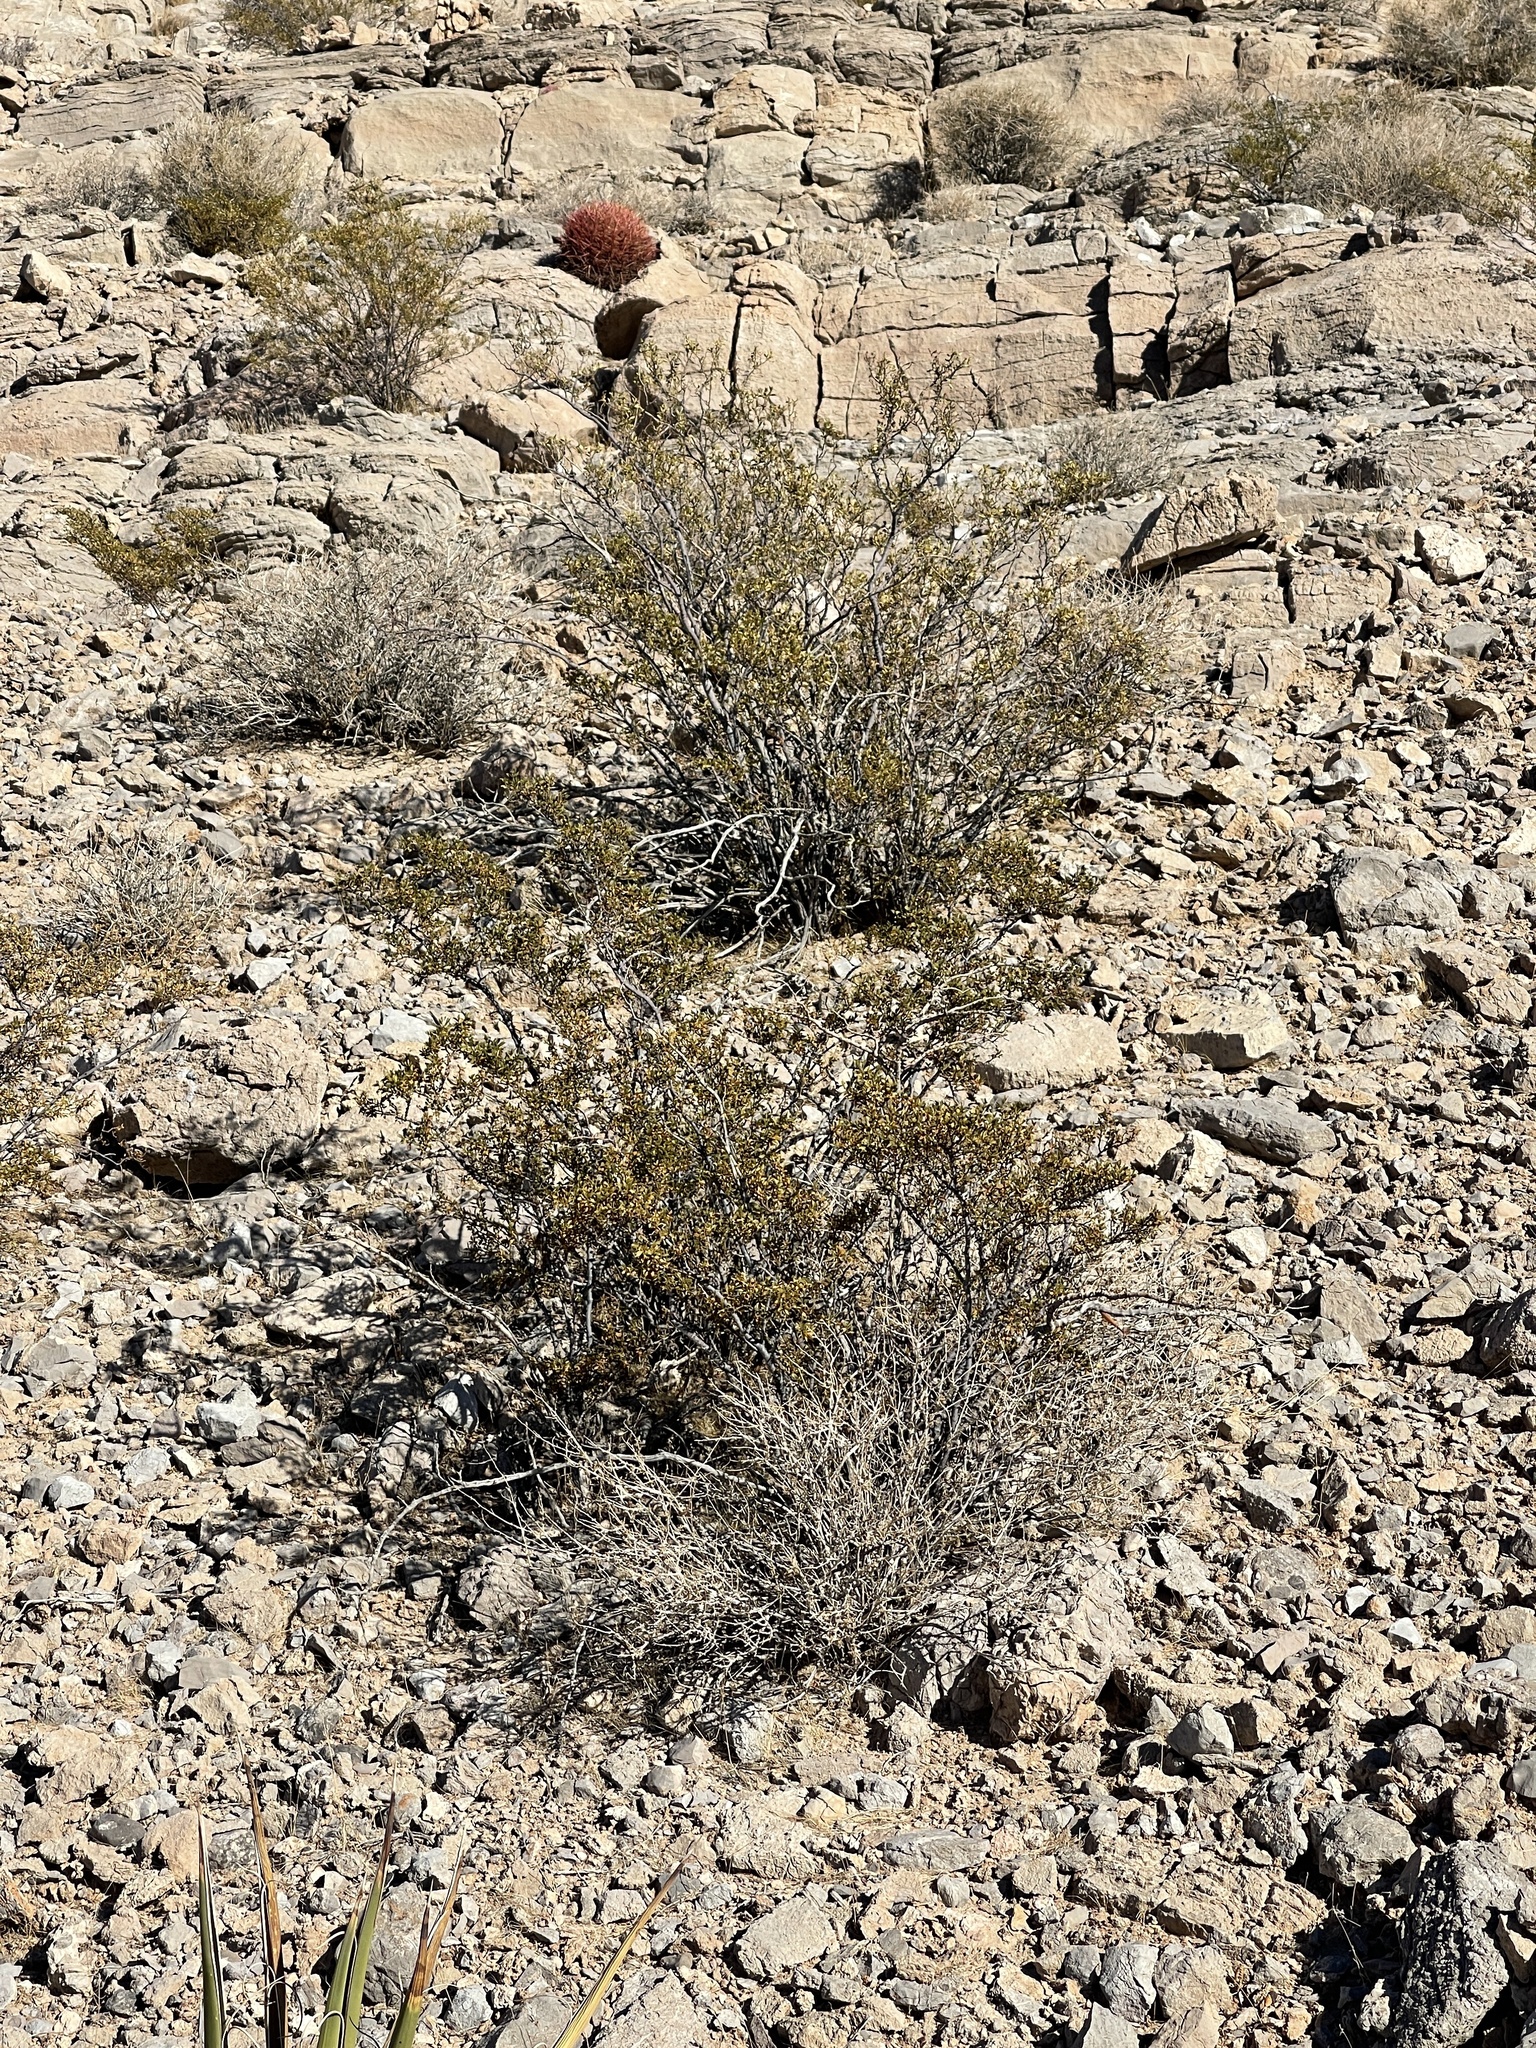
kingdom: Plantae
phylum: Tracheophyta
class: Magnoliopsida
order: Zygophyllales
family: Zygophyllaceae
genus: Larrea
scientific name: Larrea tridentata
